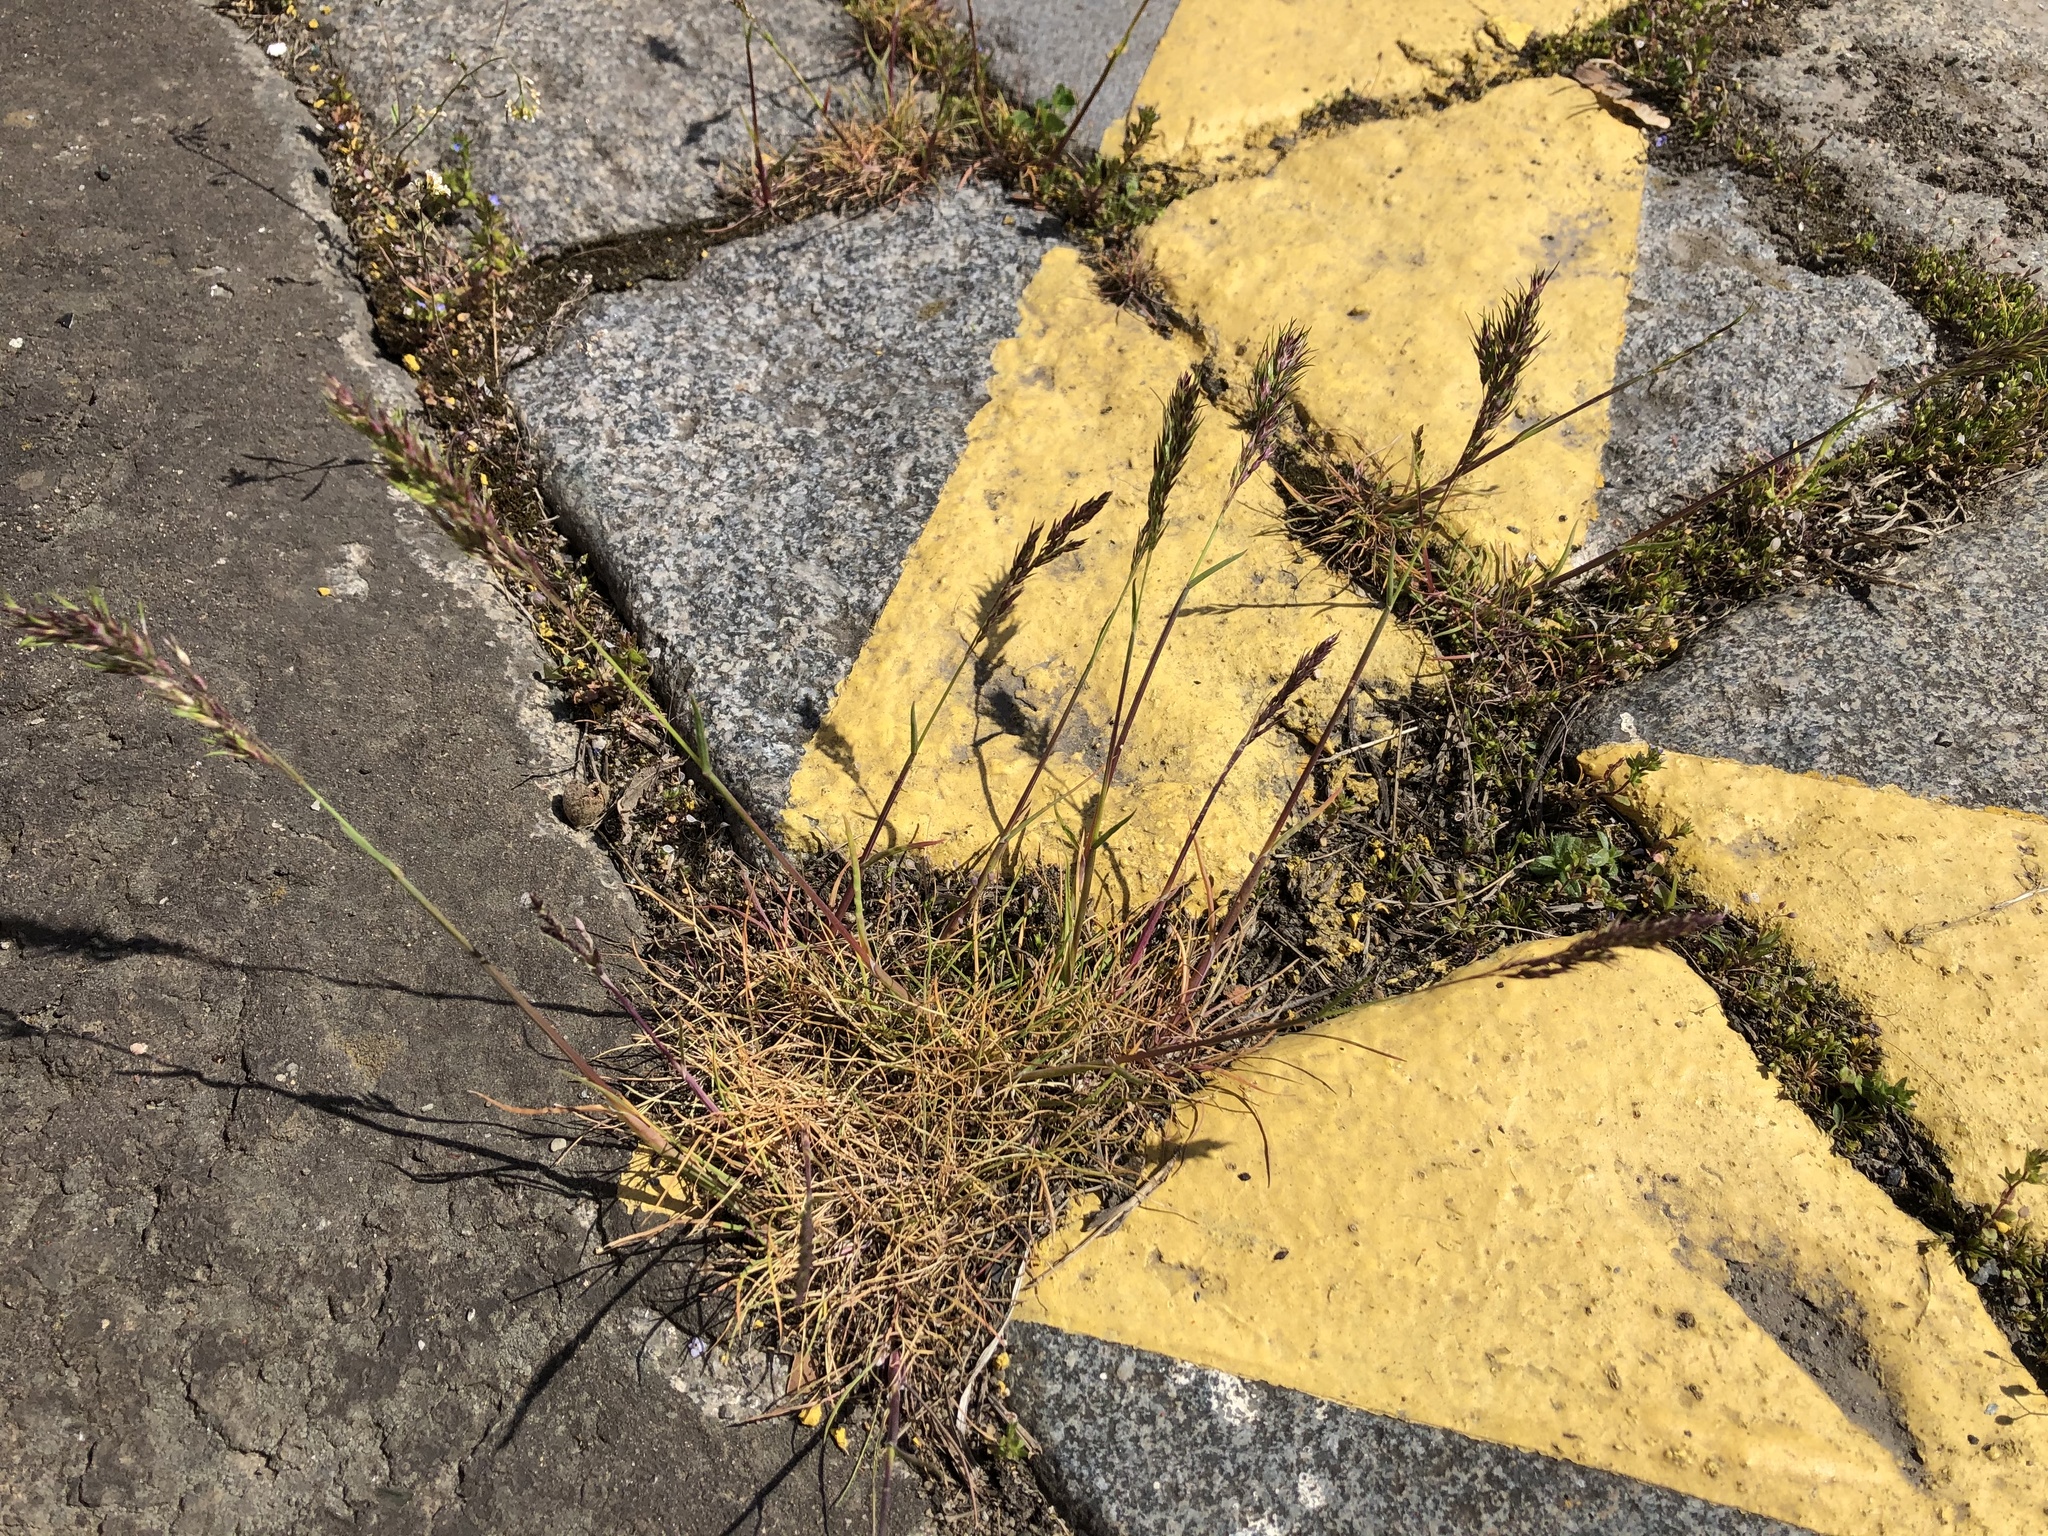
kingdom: Plantae
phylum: Tracheophyta
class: Liliopsida
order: Poales
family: Poaceae
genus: Poa
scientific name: Poa bulbosa
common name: Bulbous bluegrass
